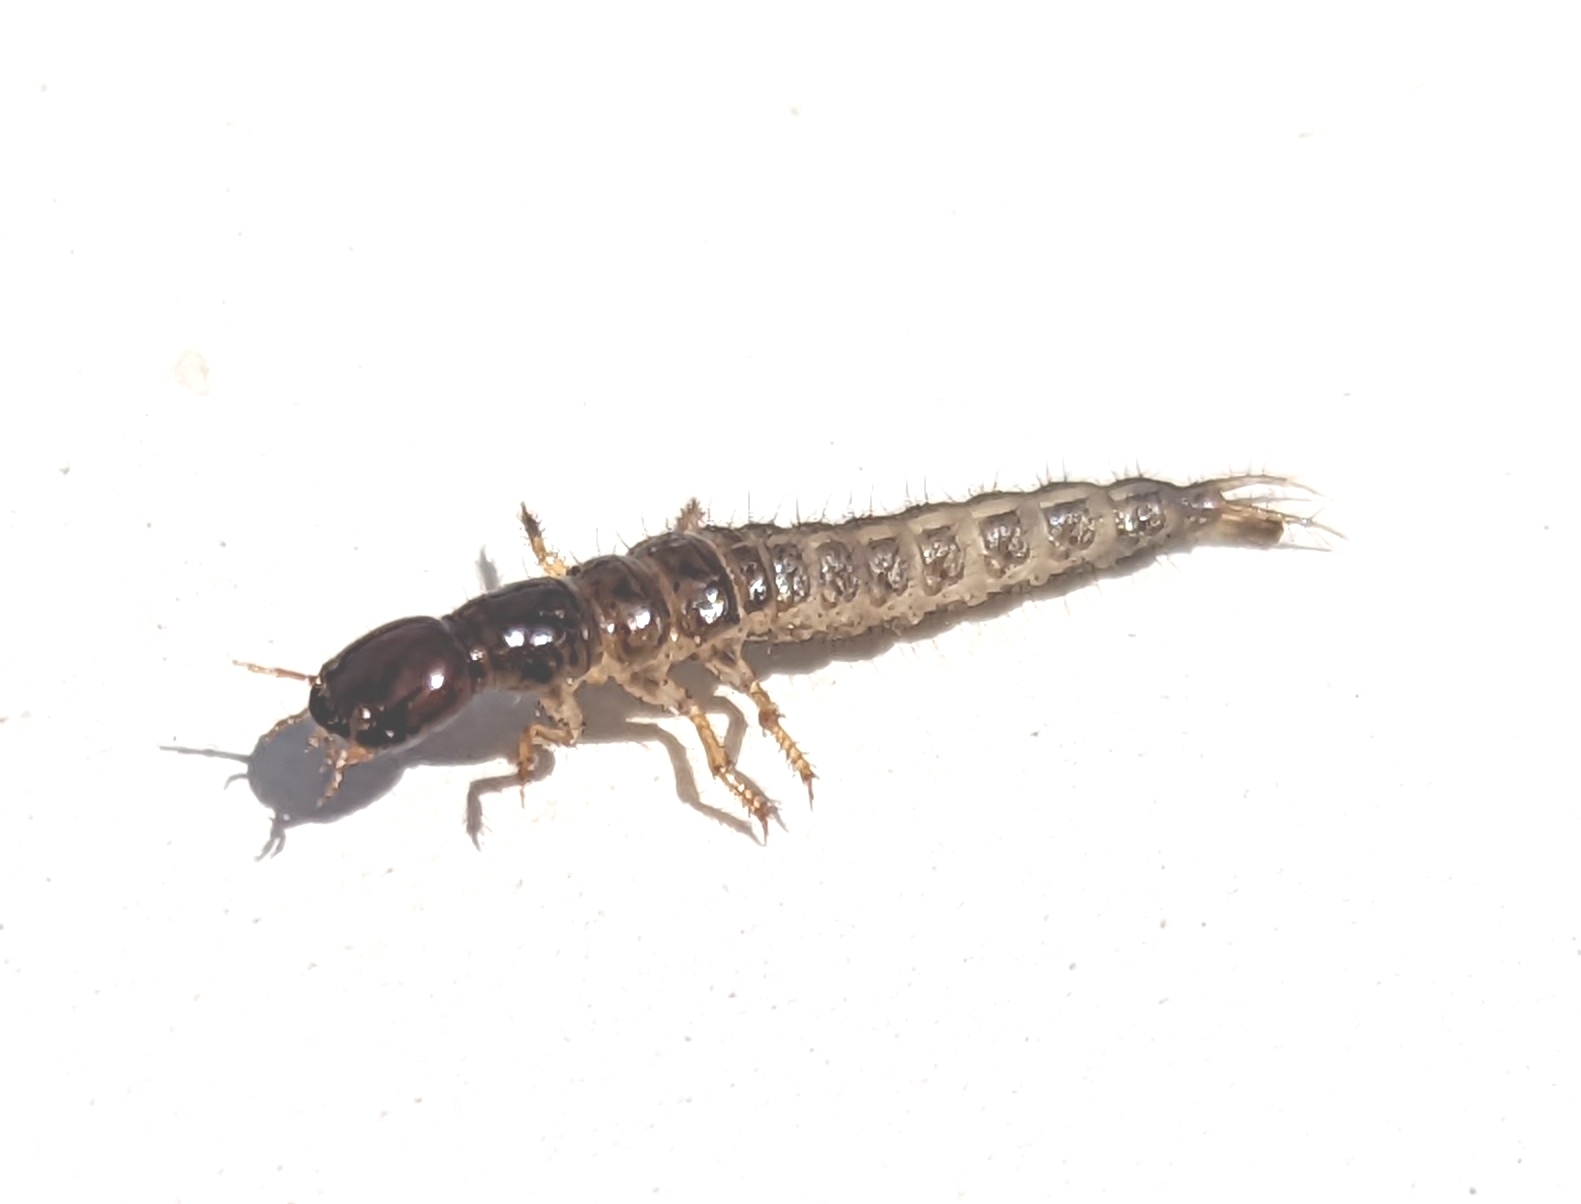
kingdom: Animalia
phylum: Arthropoda
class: Insecta
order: Coleoptera
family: Staphylinidae
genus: Ocypus
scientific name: Ocypus olens
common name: Devil's coach-horse
